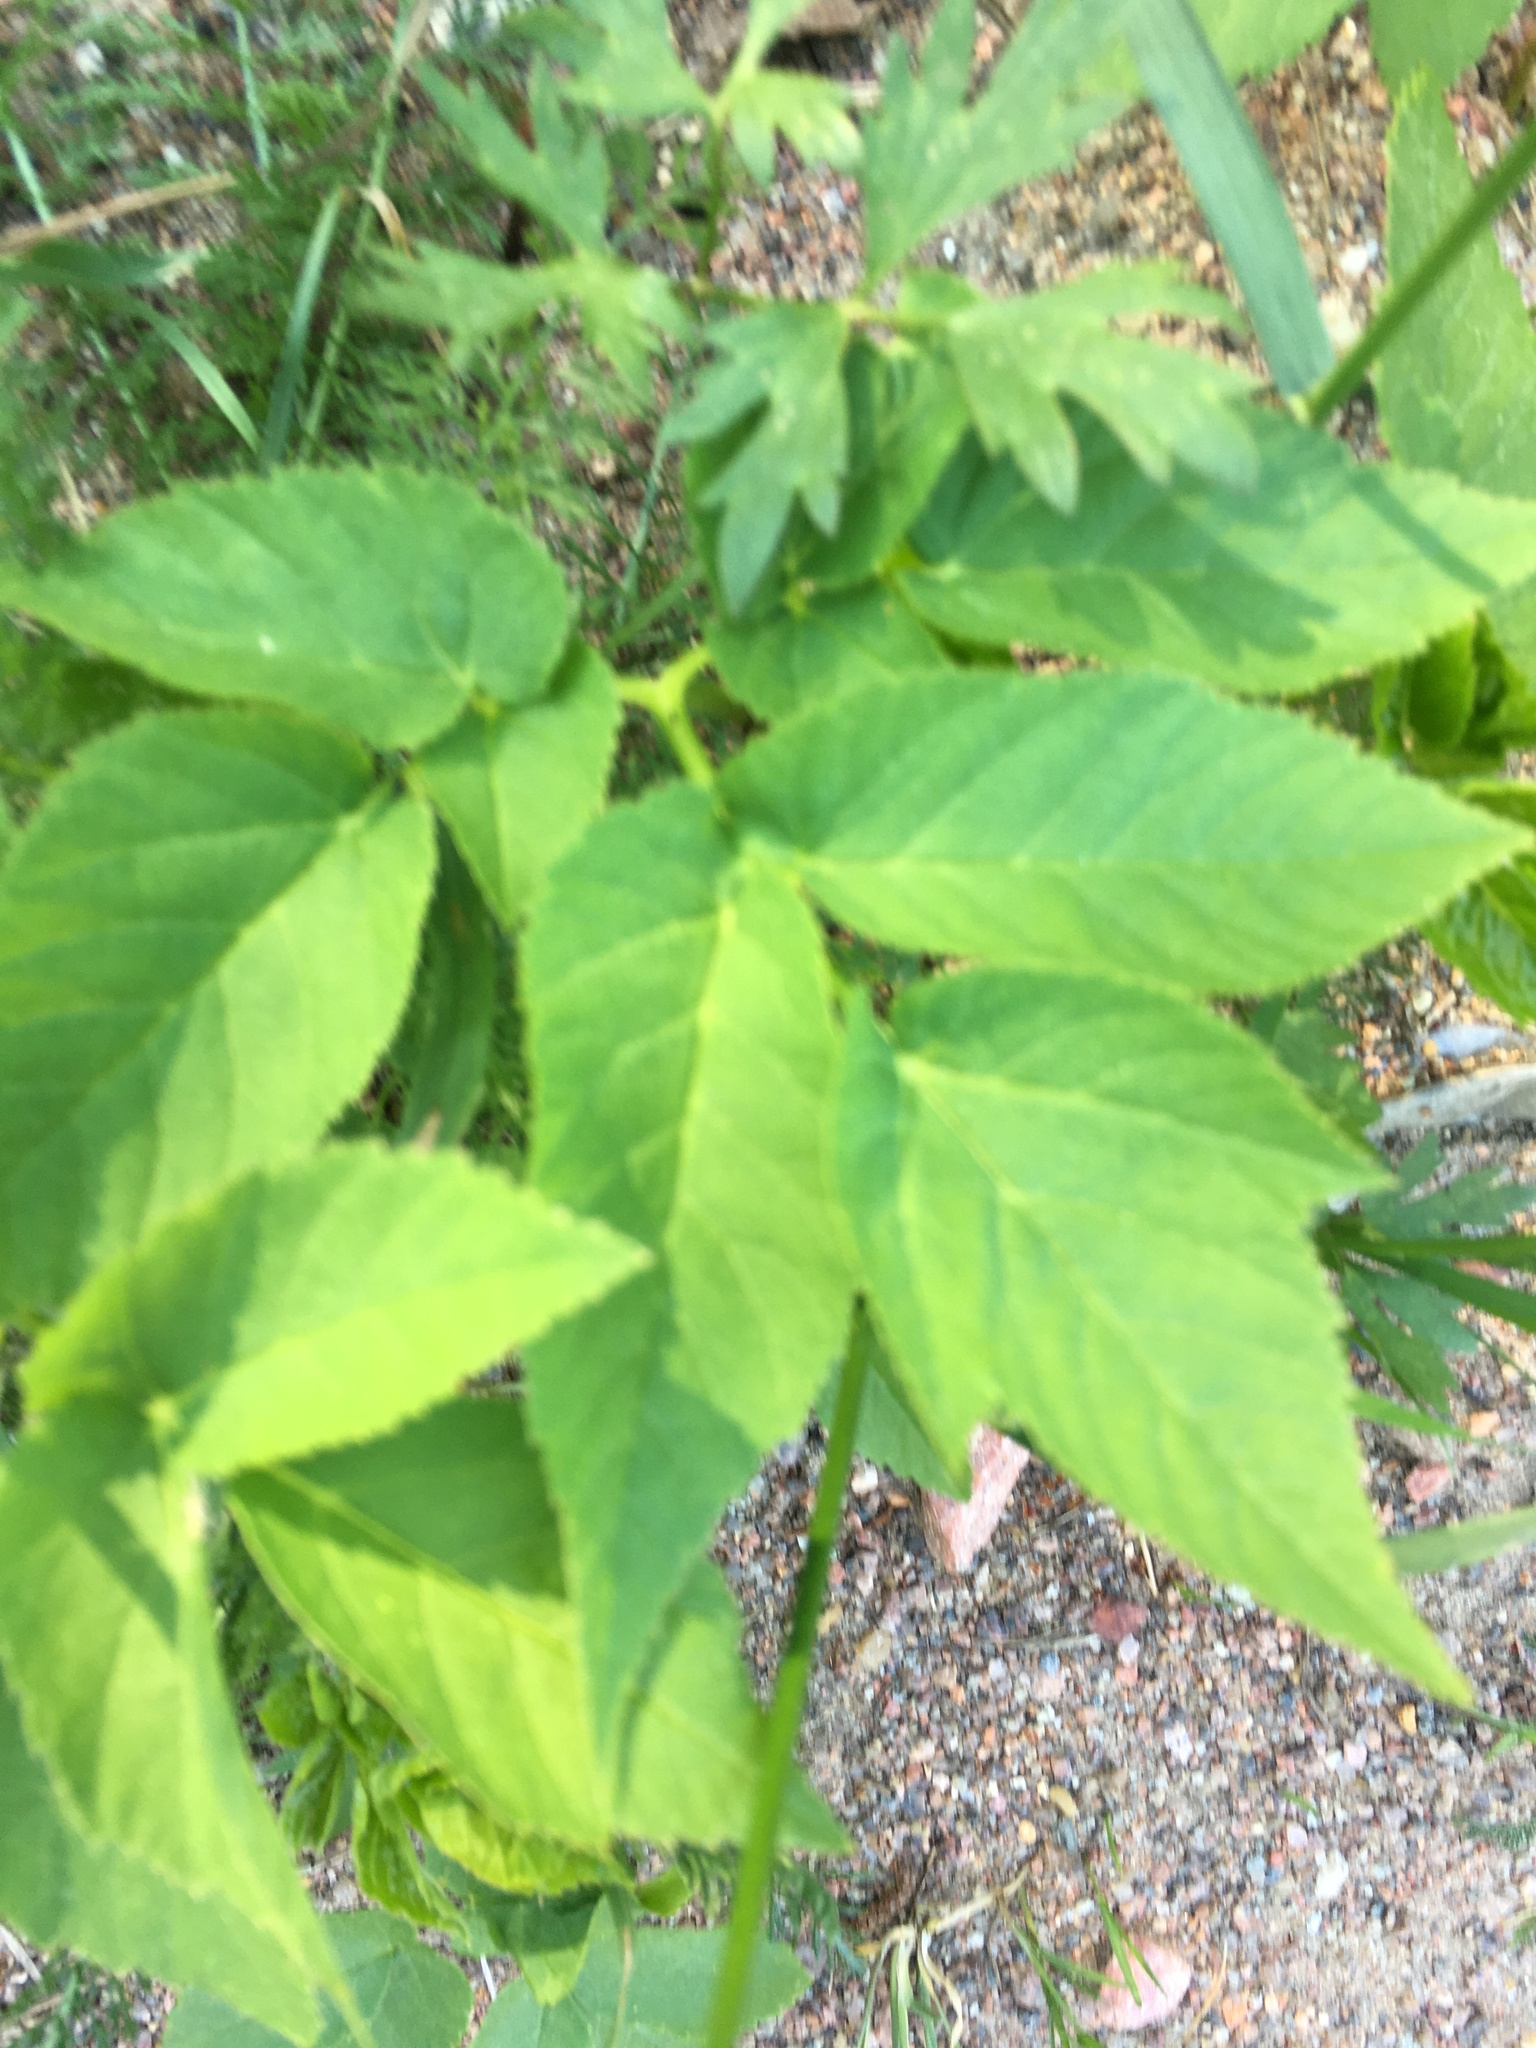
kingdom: Plantae
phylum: Tracheophyta
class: Magnoliopsida
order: Apiales
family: Apiaceae
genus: Aegopodium
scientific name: Aegopodium podagraria
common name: Ground-elder
